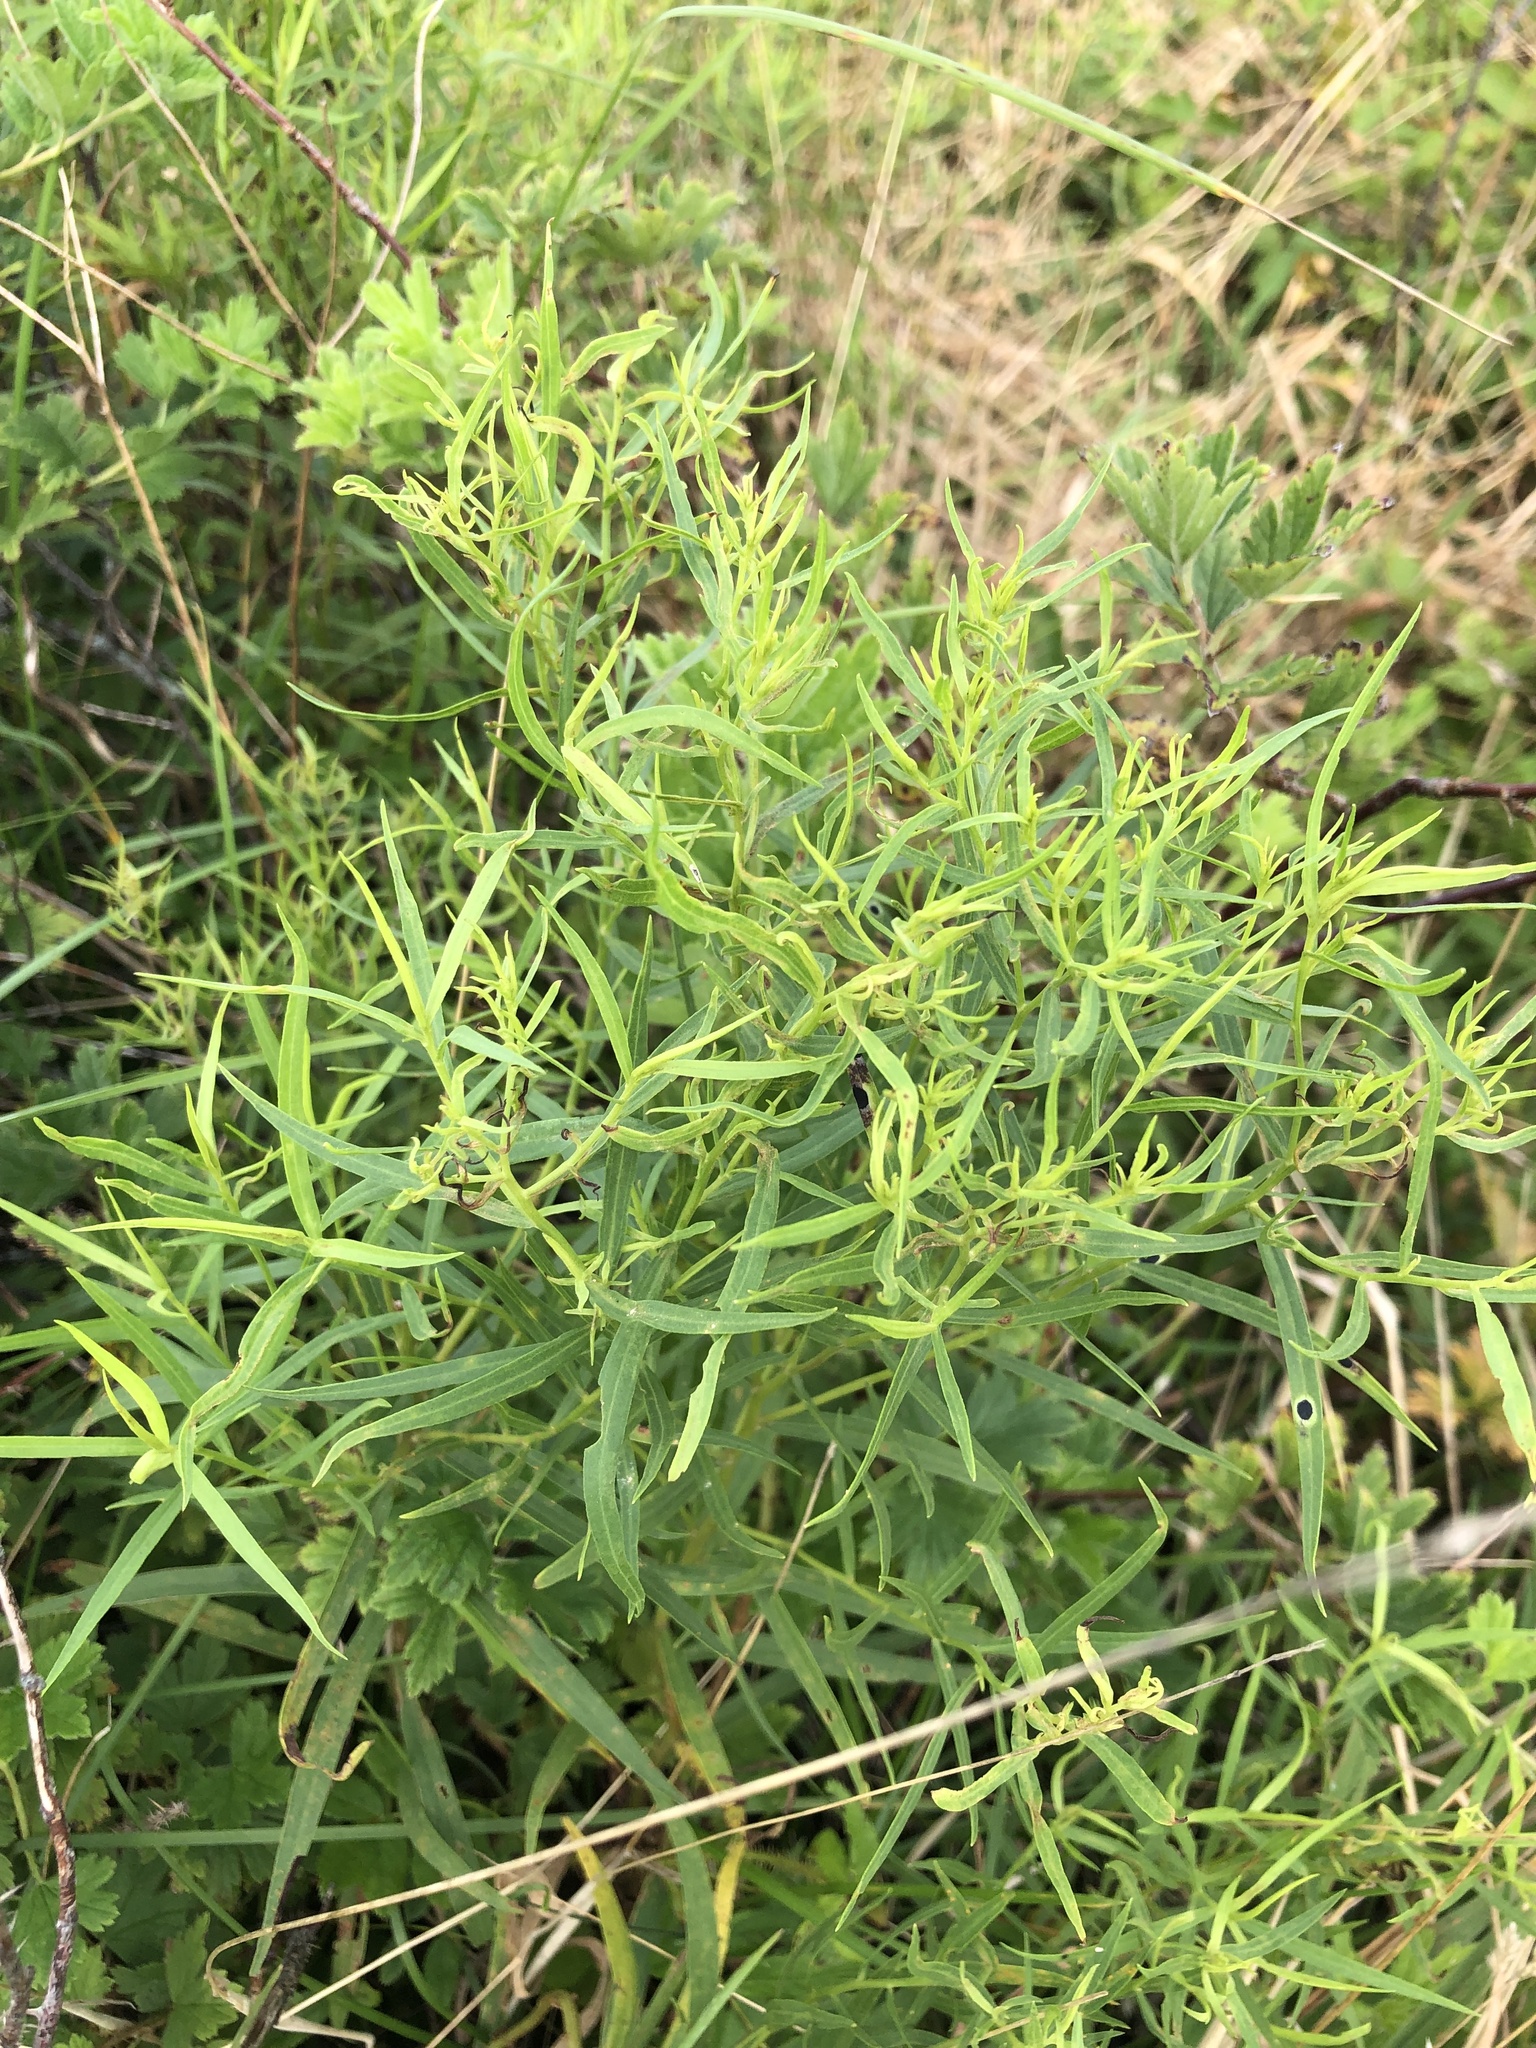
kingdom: Plantae
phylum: Tracheophyta
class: Magnoliopsida
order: Asterales
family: Asteraceae
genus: Euthamia
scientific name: Euthamia graminifolia
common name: Common goldentop
